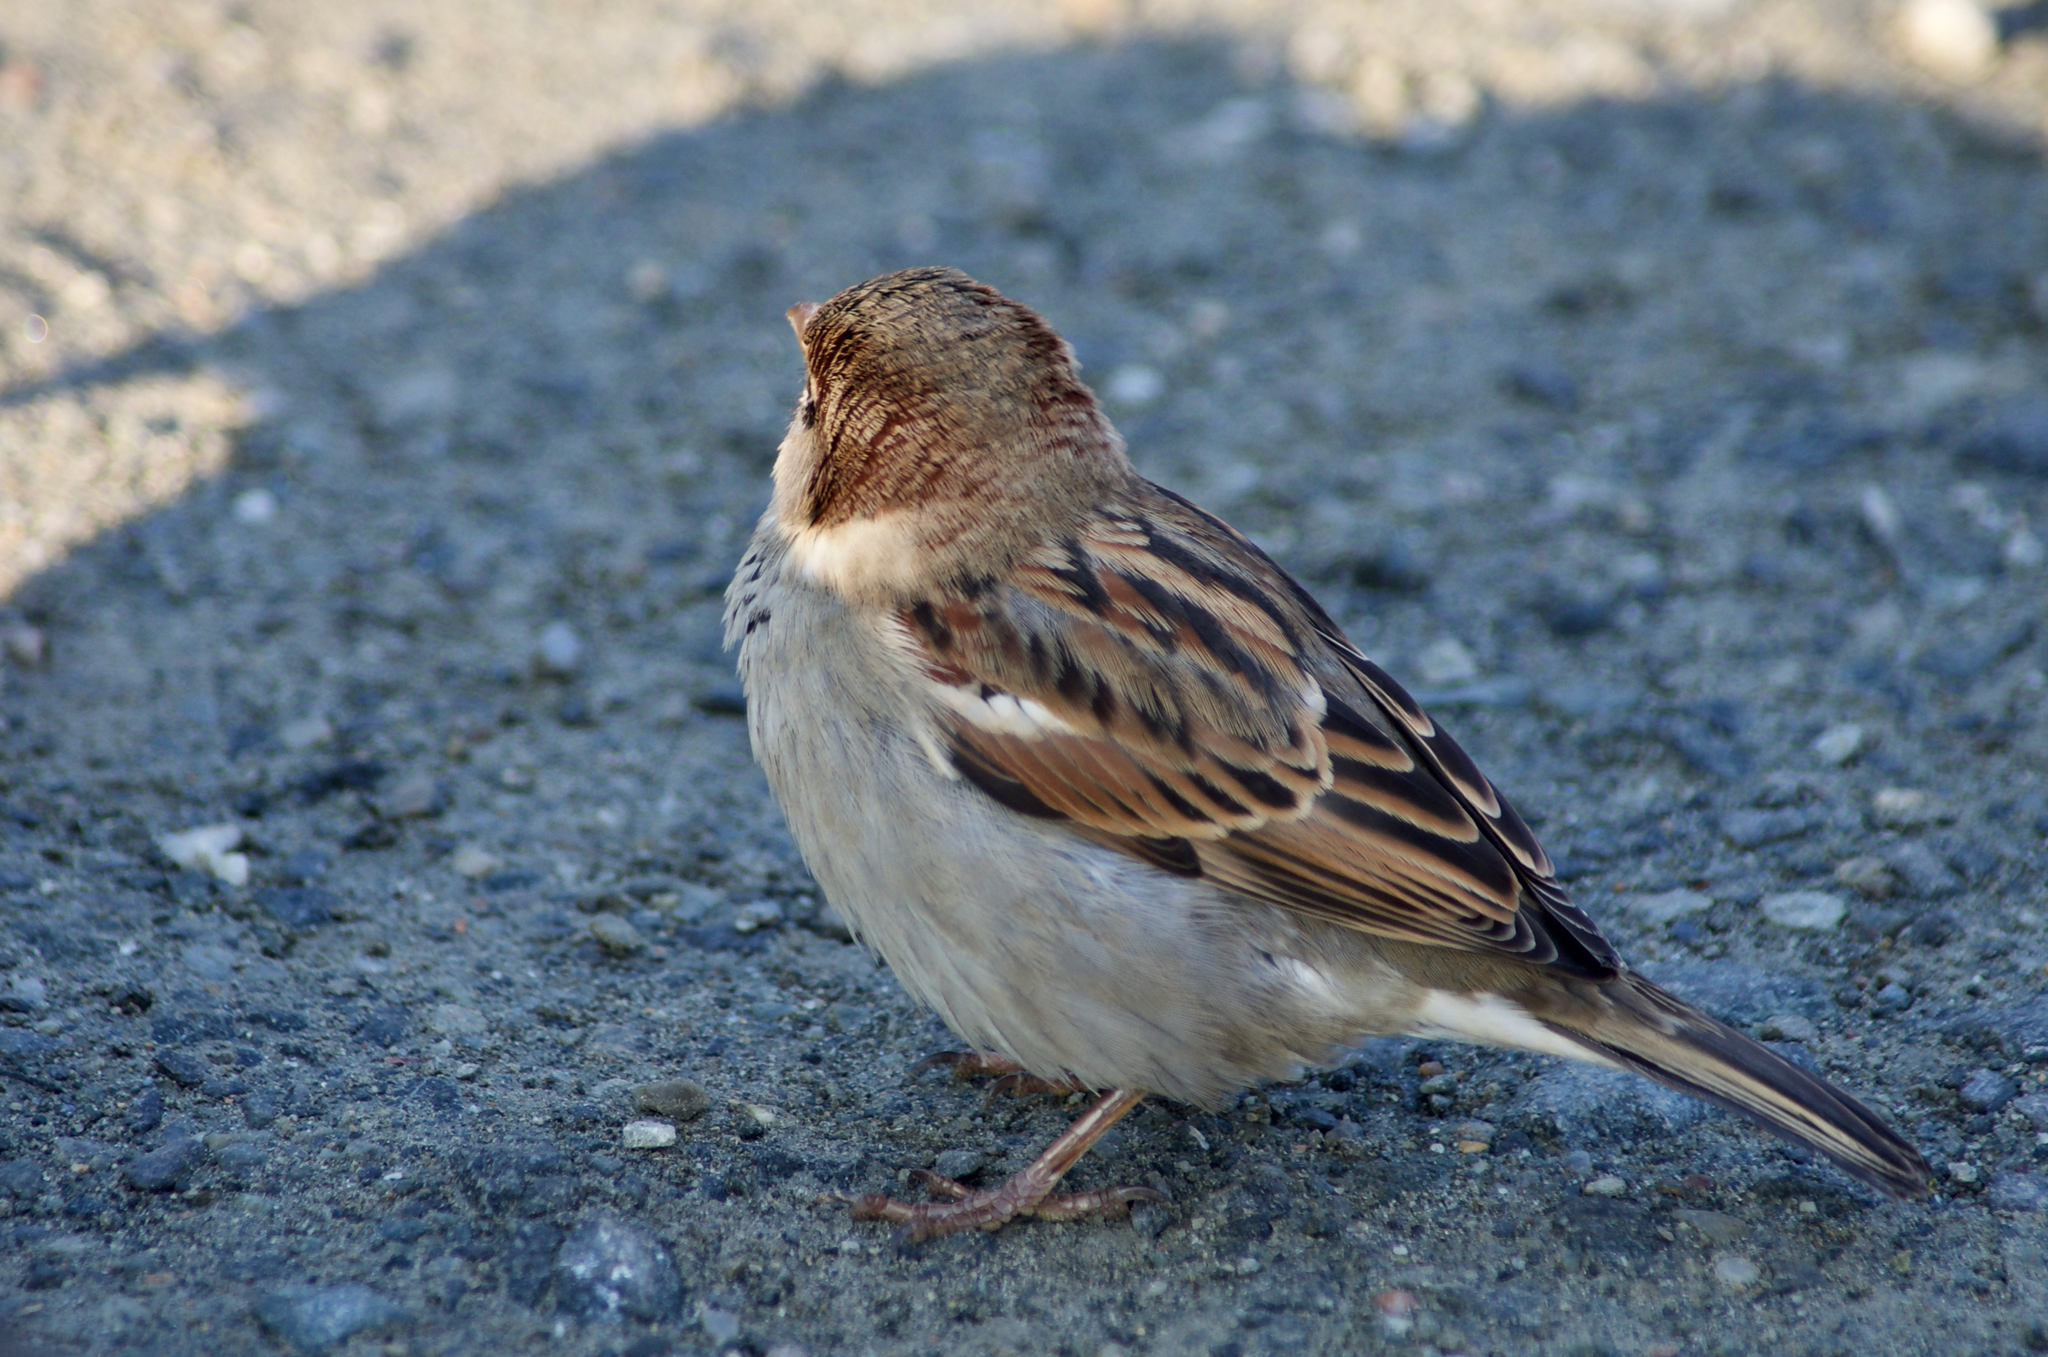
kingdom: Animalia
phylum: Chordata
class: Aves
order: Passeriformes
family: Passeridae
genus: Passer
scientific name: Passer domesticus
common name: House sparrow
